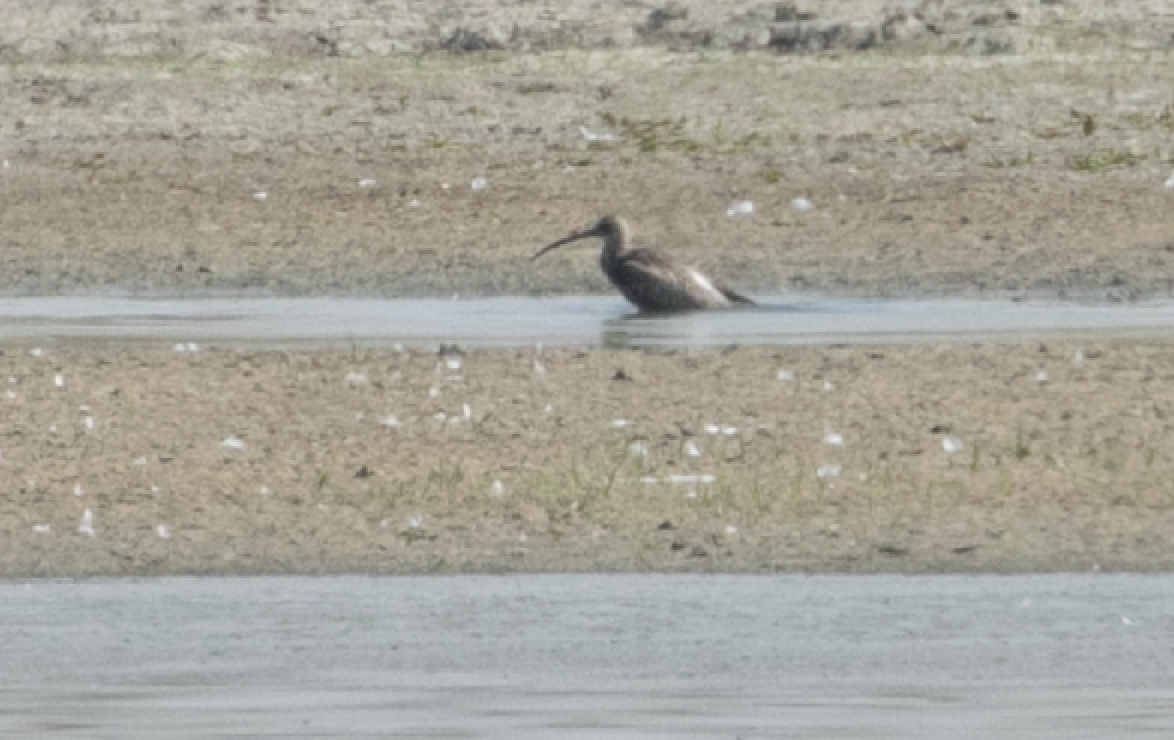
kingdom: Animalia
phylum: Chordata
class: Aves
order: Charadriiformes
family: Scolopacidae
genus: Numenius
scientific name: Numenius arquata
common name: Eurasian curlew
